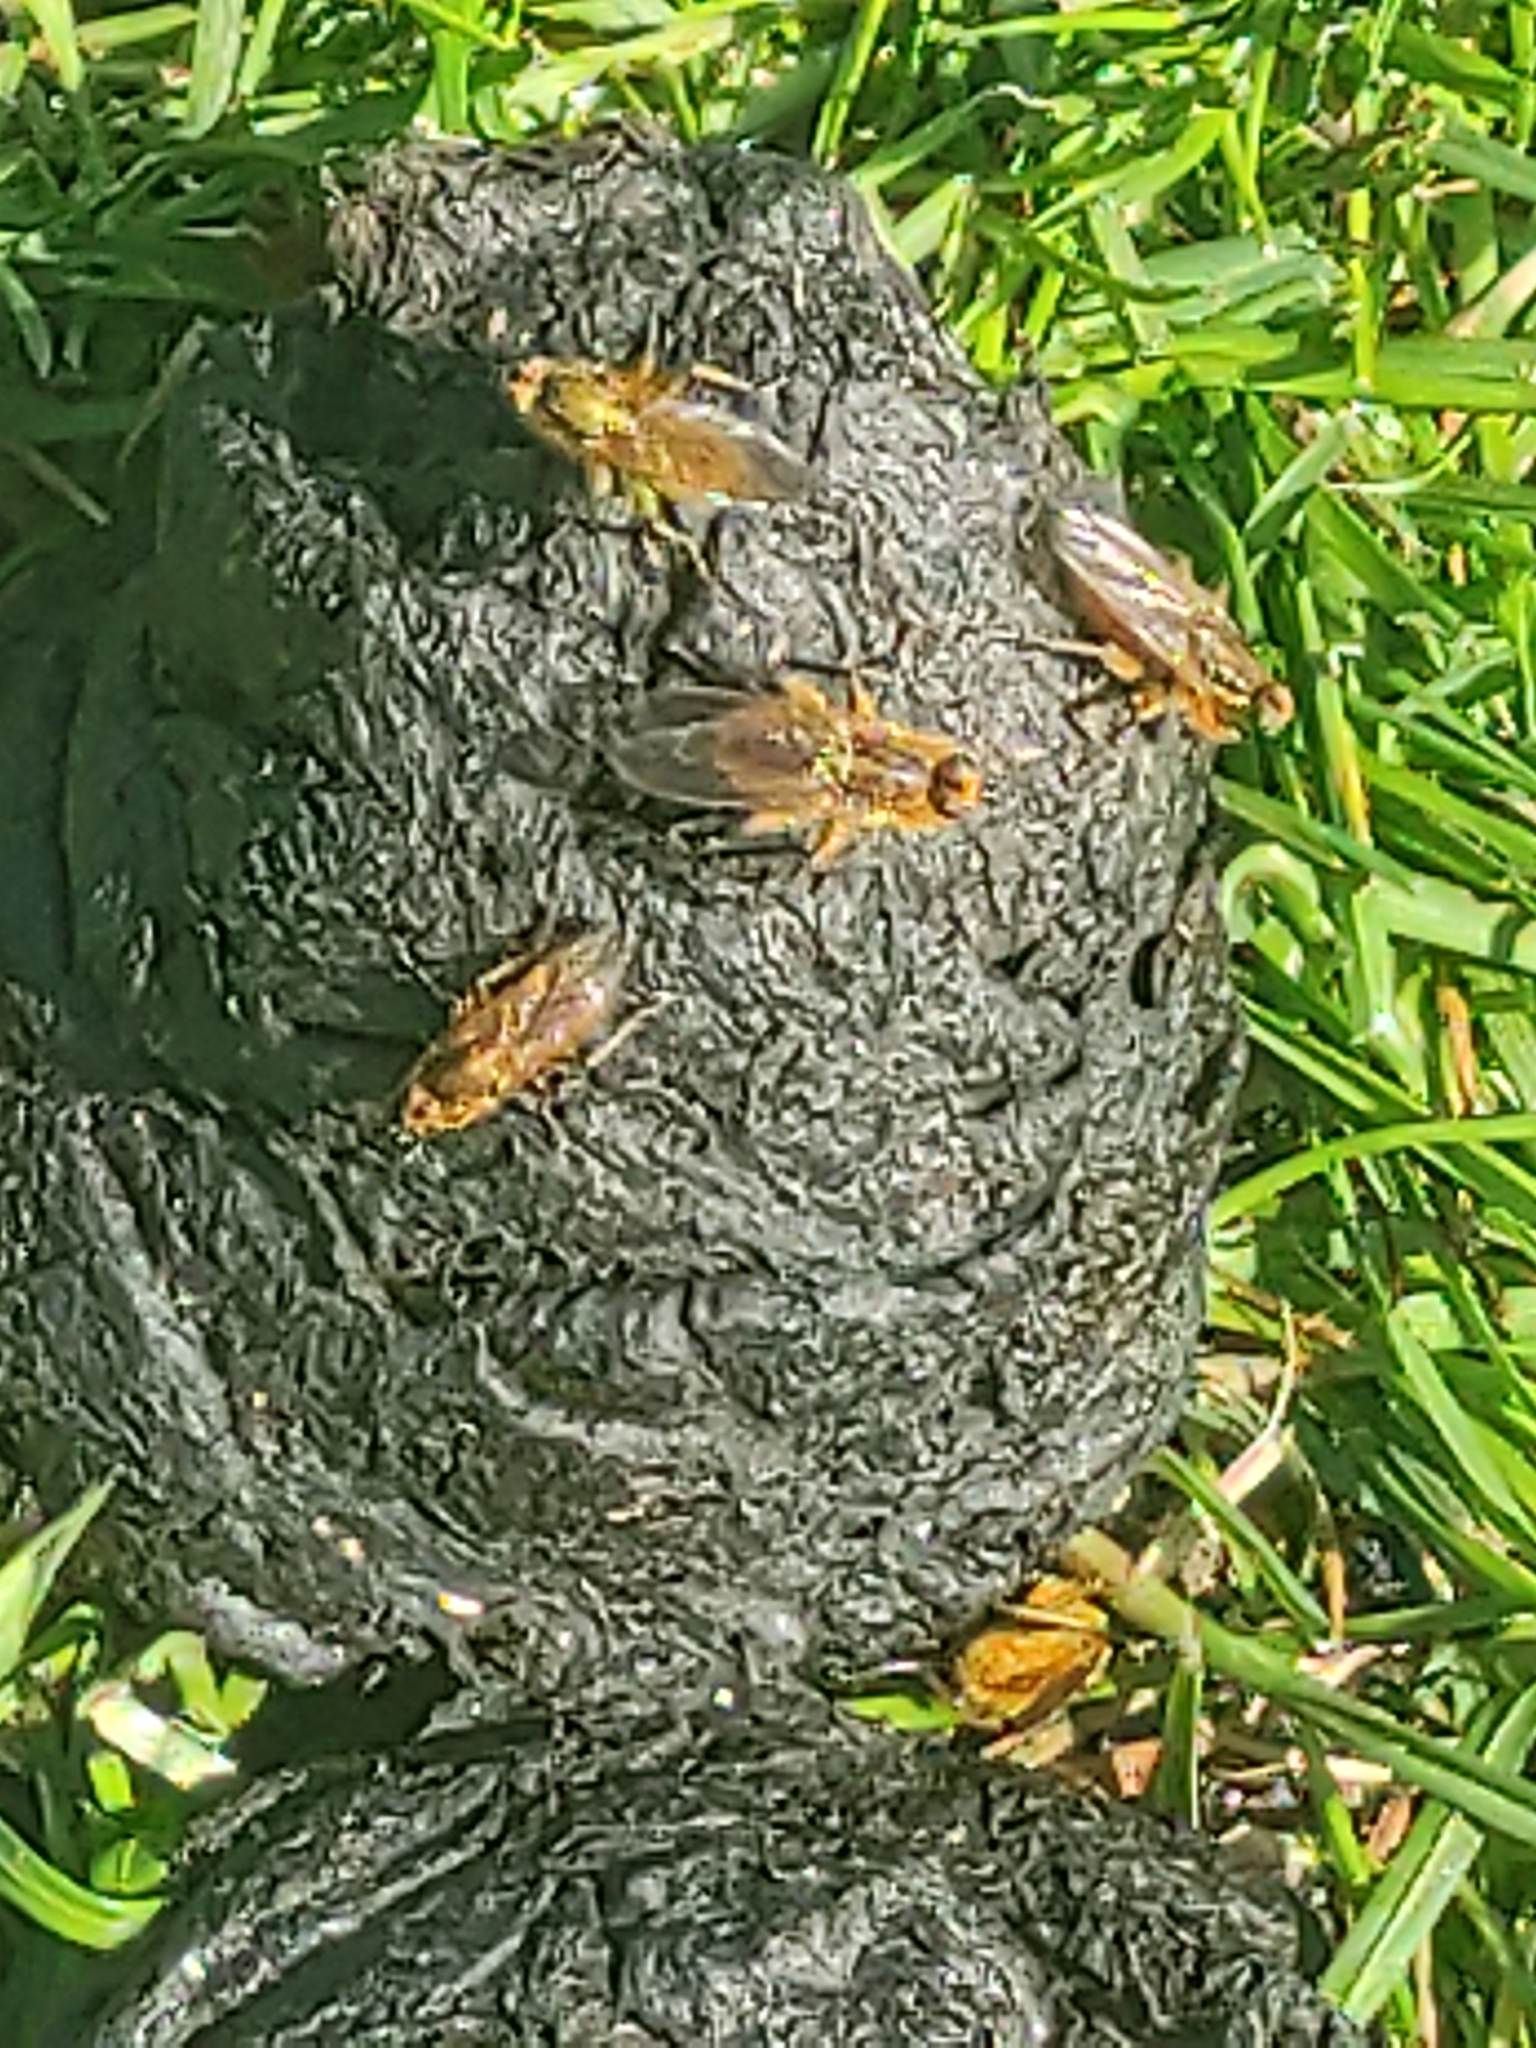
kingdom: Animalia
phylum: Arthropoda
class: Insecta
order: Diptera
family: Scathophagidae
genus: Scathophaga
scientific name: Scathophaga stercoraria
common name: Yellow dung fly
